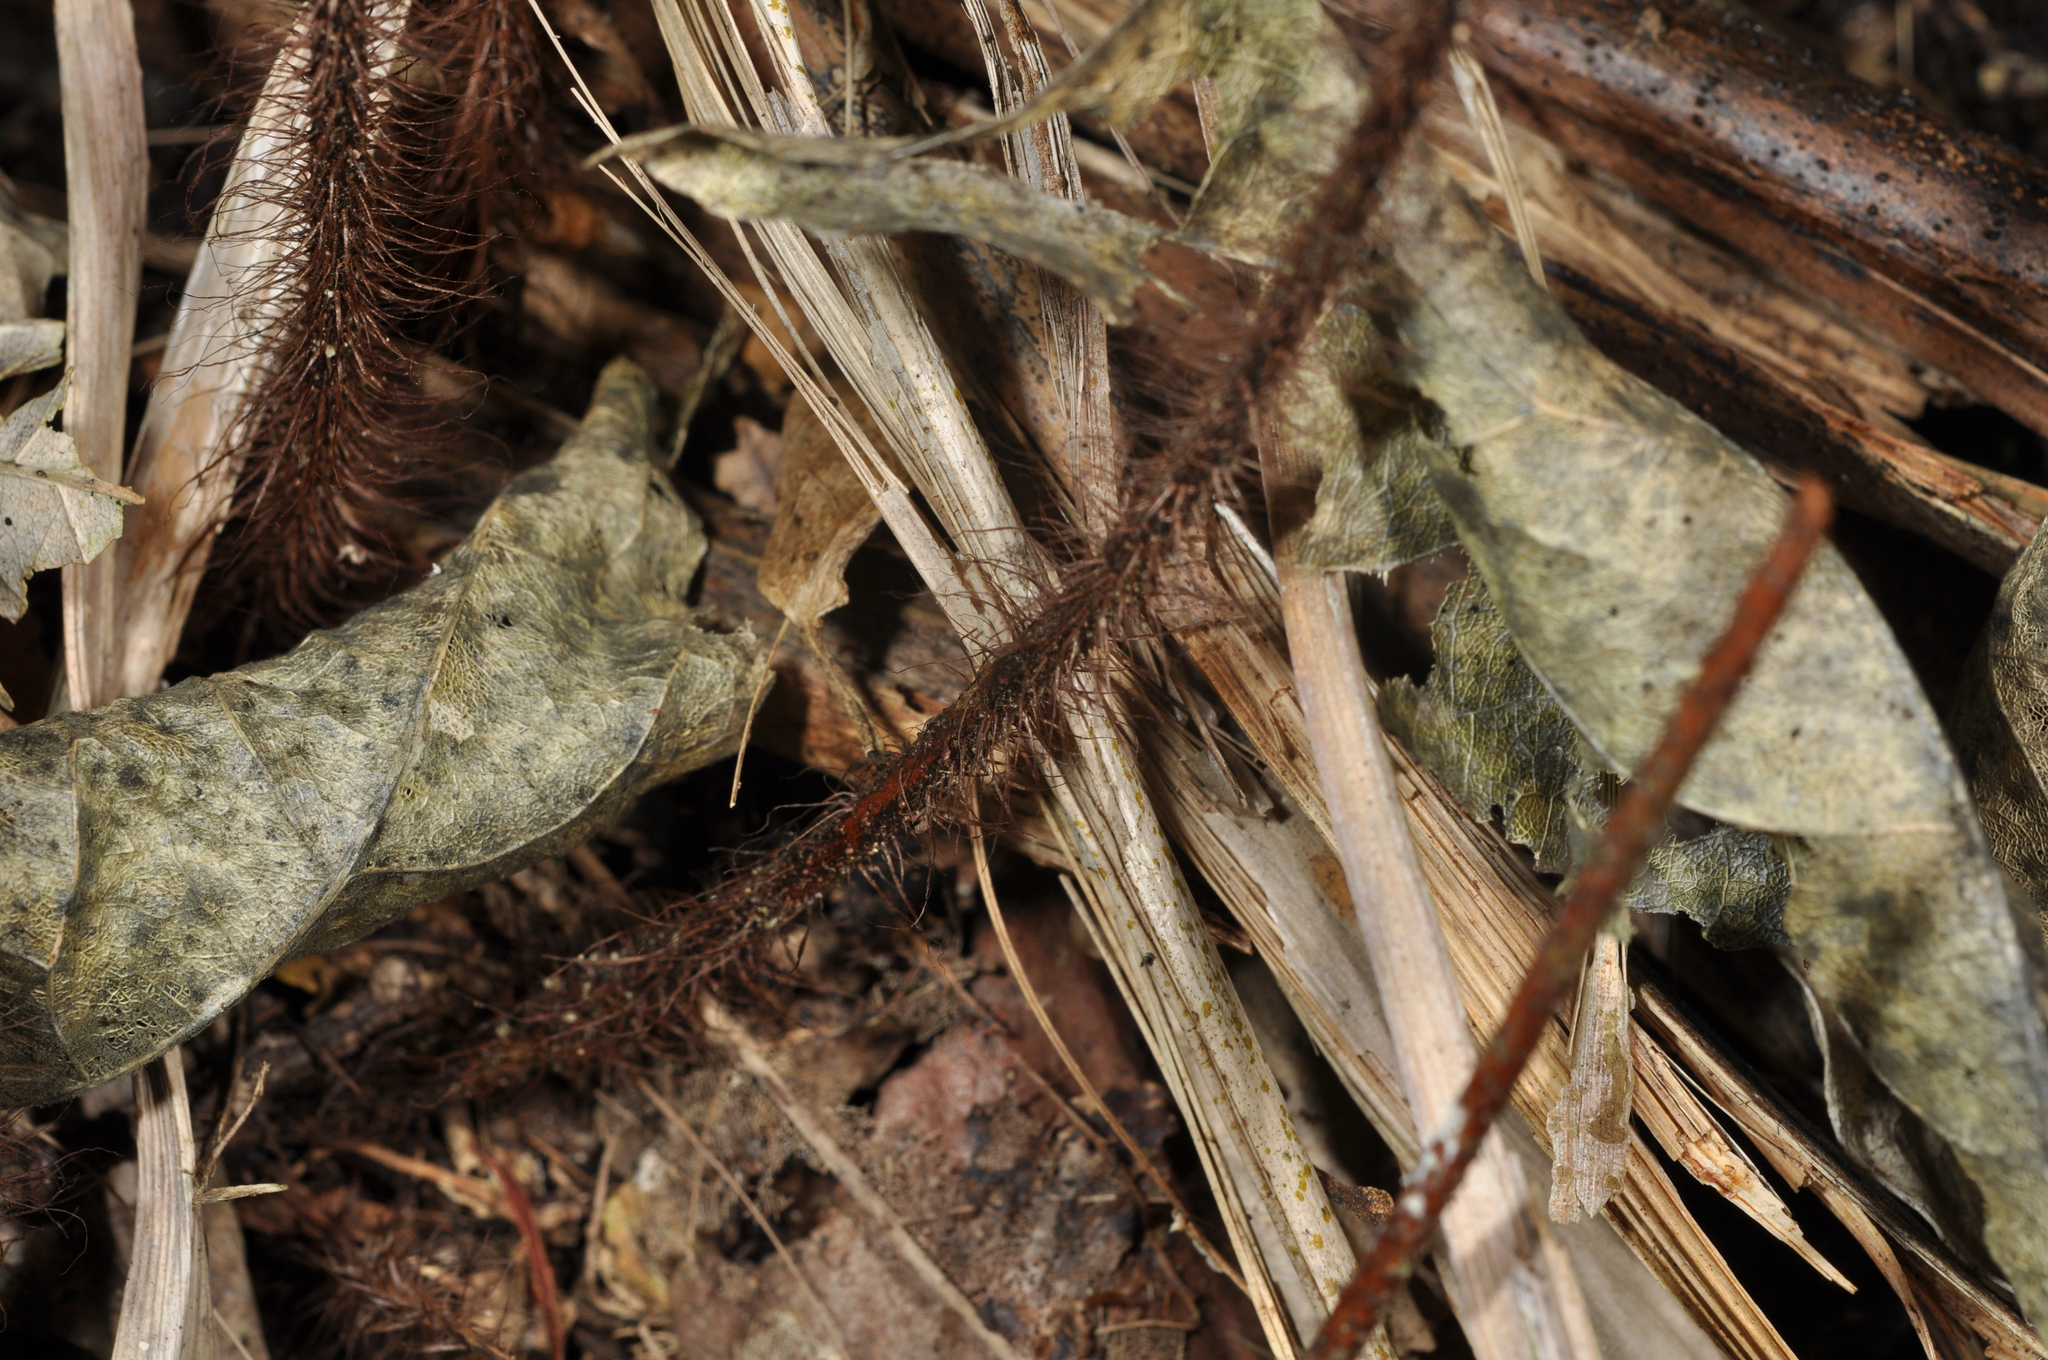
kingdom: Plantae
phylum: Tracheophyta
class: Polypodiopsida
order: Polypodiales
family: Dryopteridaceae
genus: Lastreopsis
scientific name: Lastreopsis hispida
